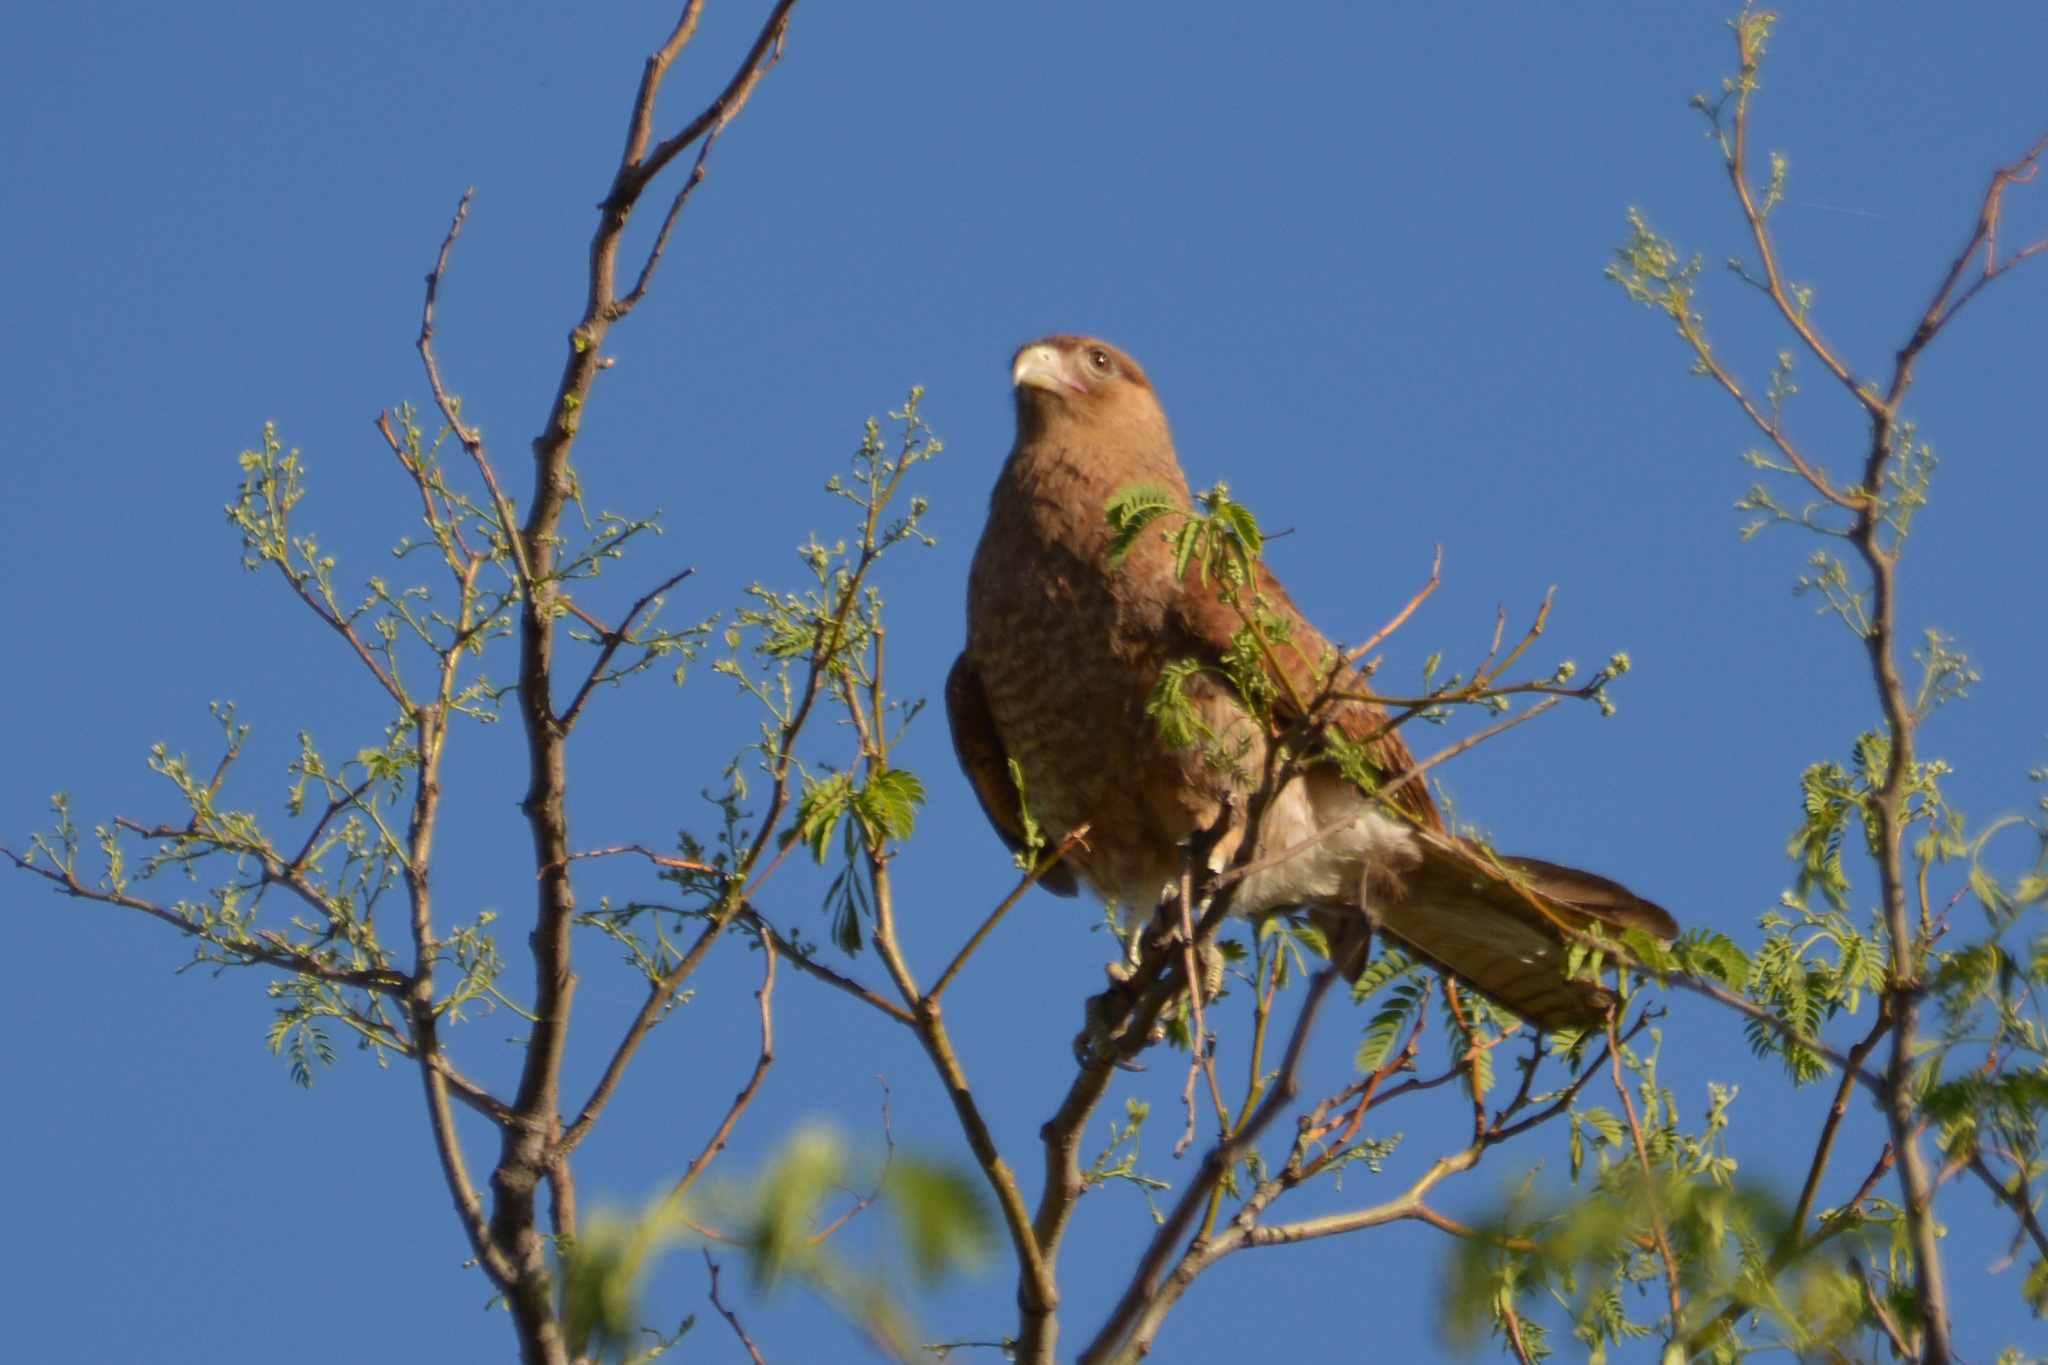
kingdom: Animalia
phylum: Chordata
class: Aves
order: Falconiformes
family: Falconidae
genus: Daptrius
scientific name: Daptrius
